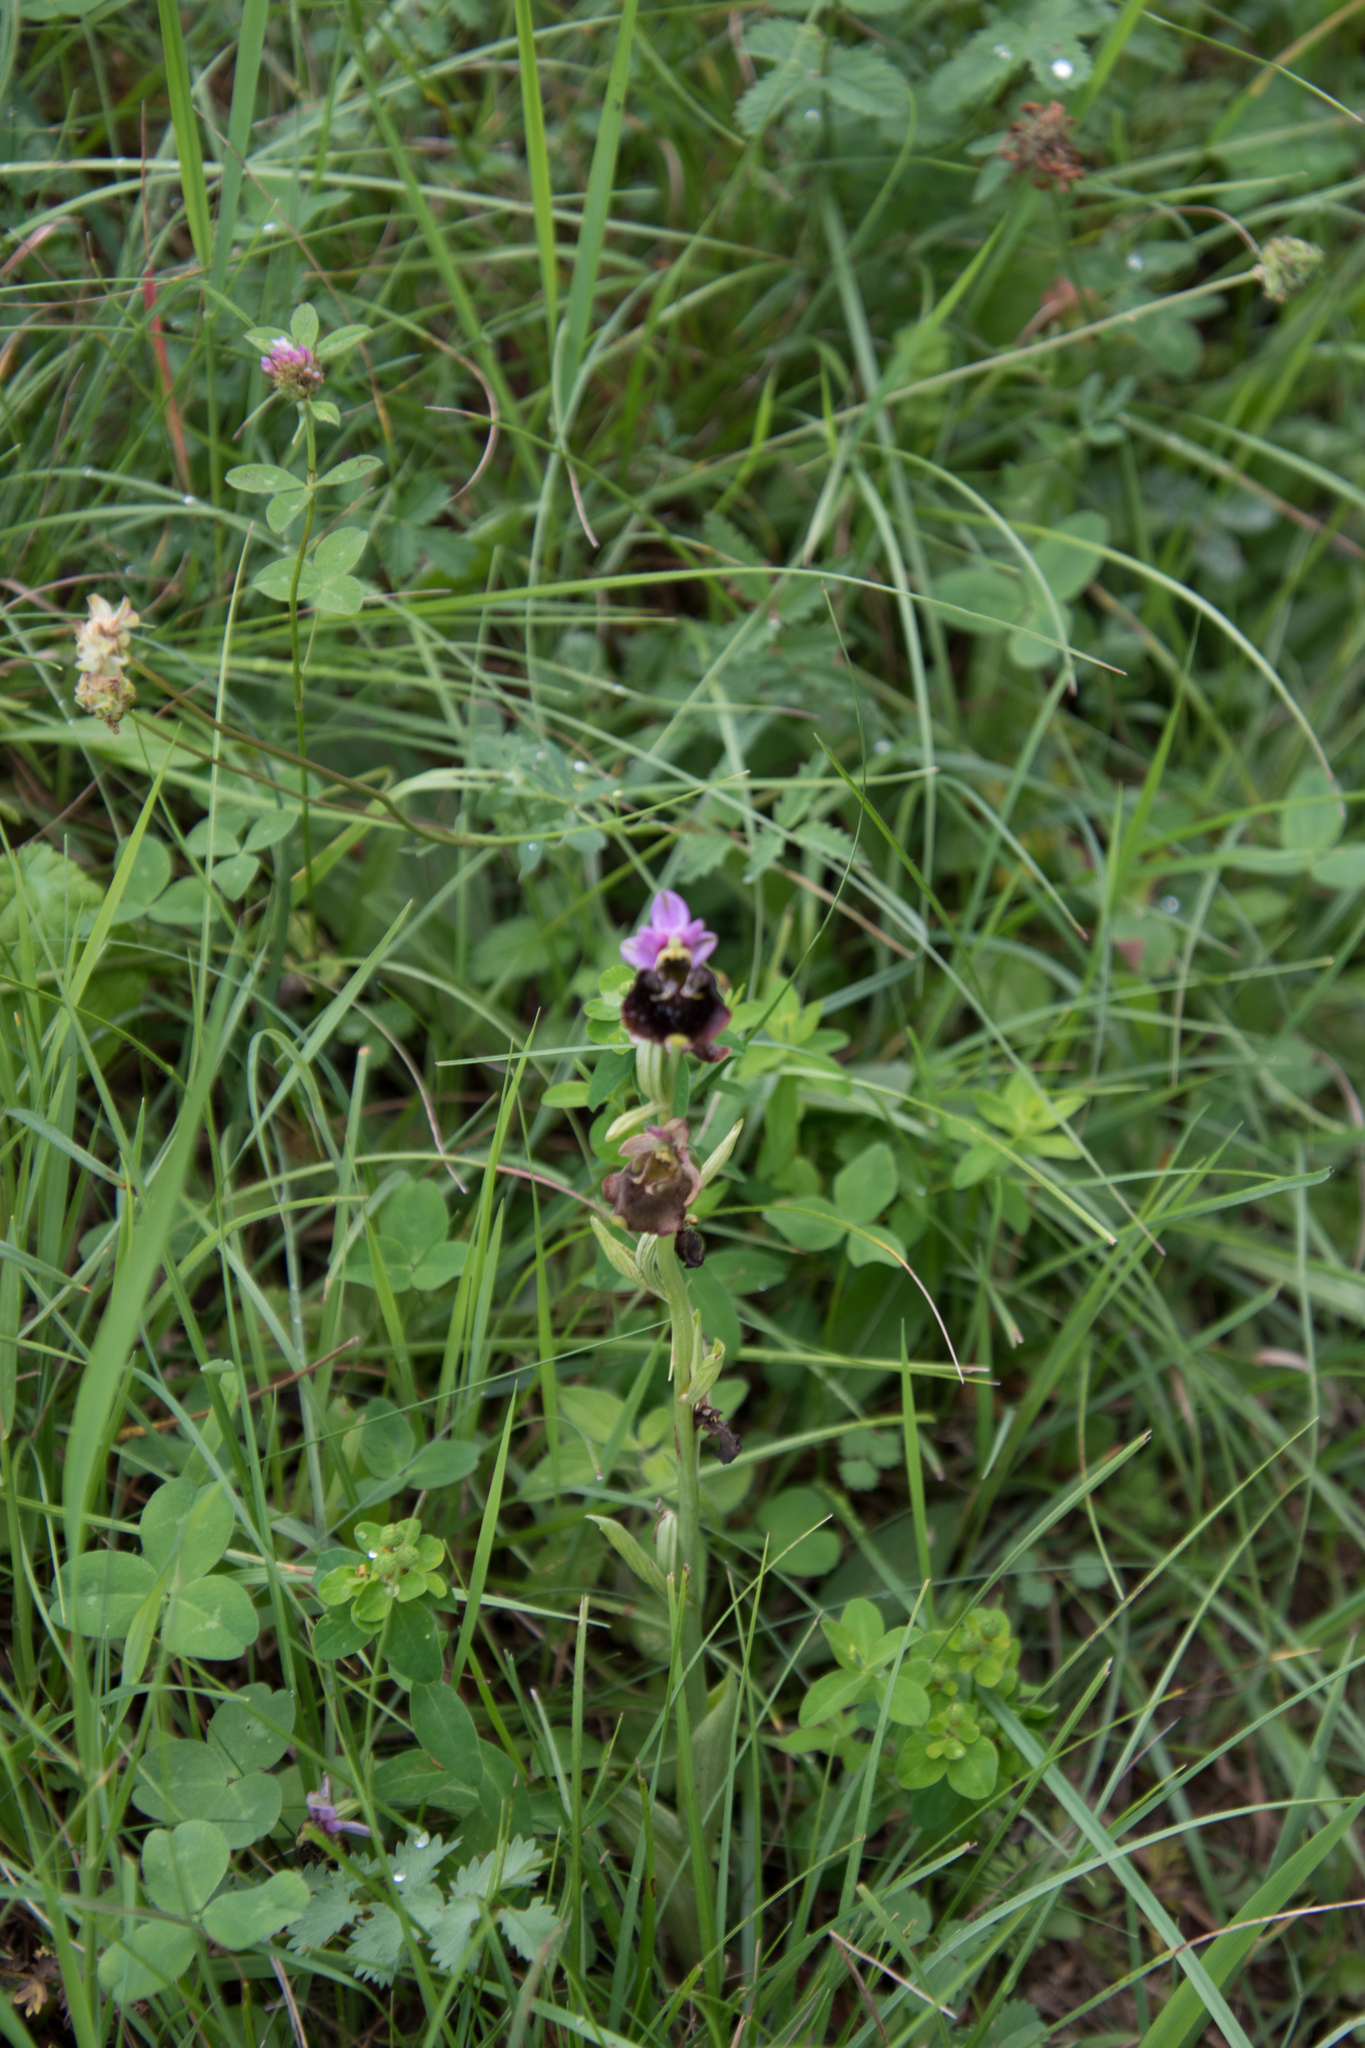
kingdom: Plantae
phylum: Tracheophyta
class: Liliopsida
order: Asparagales
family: Orchidaceae
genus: Ophrys
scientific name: Ophrys holosericea
